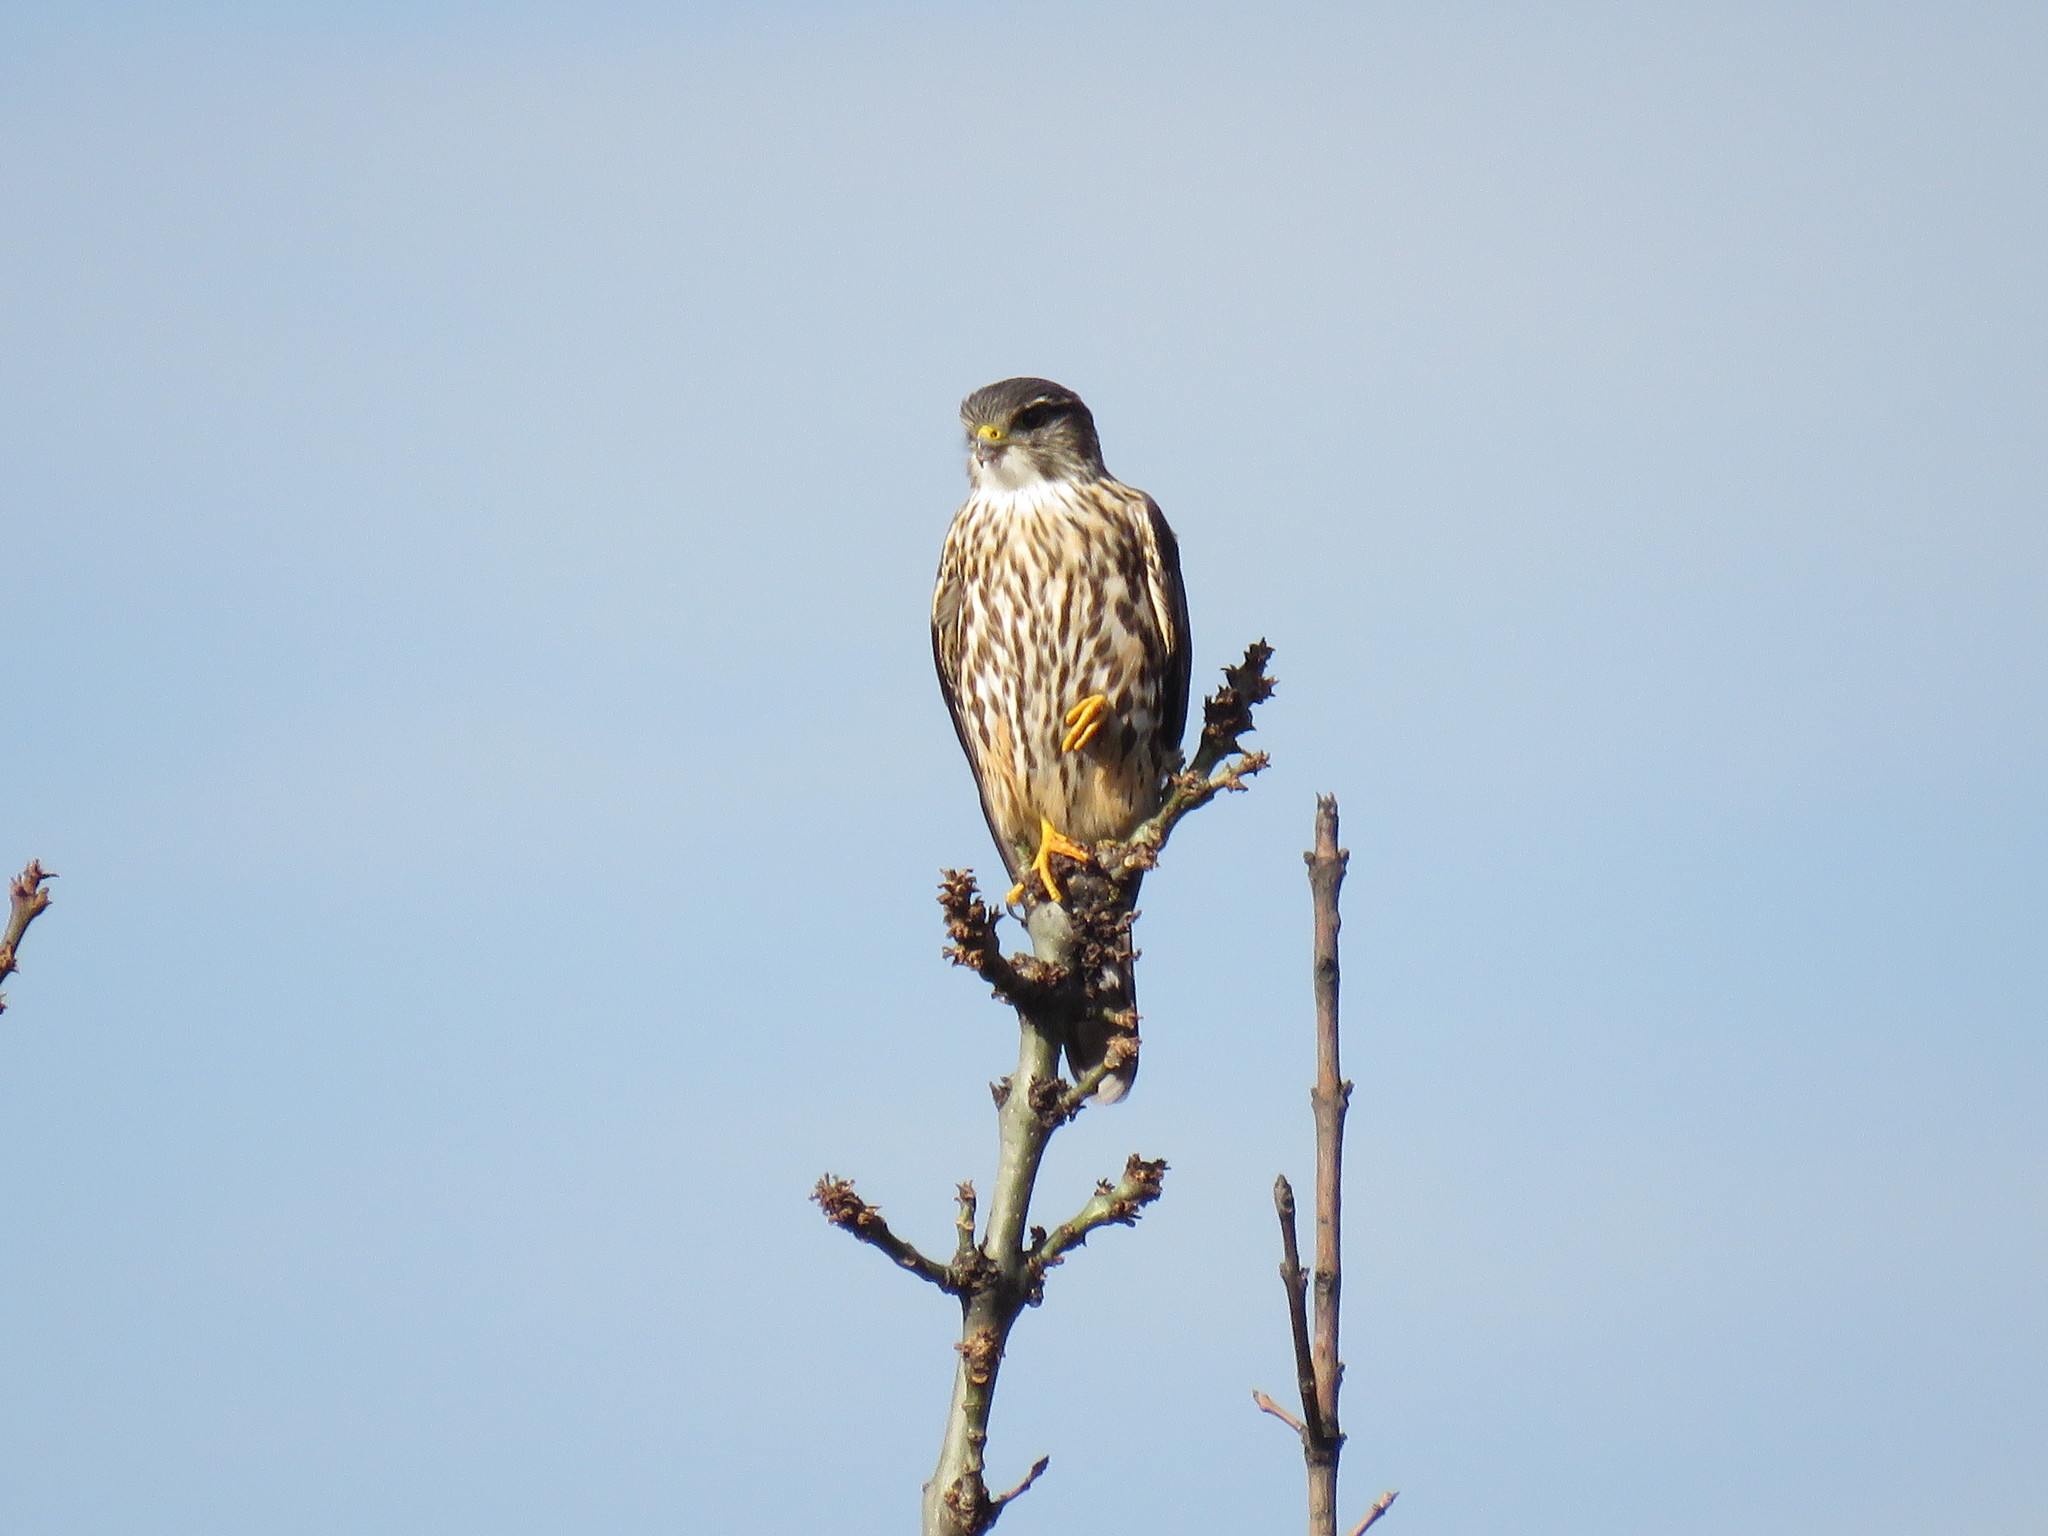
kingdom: Animalia
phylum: Chordata
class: Aves
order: Falconiformes
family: Falconidae
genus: Falco
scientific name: Falco columbarius
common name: Merlin
